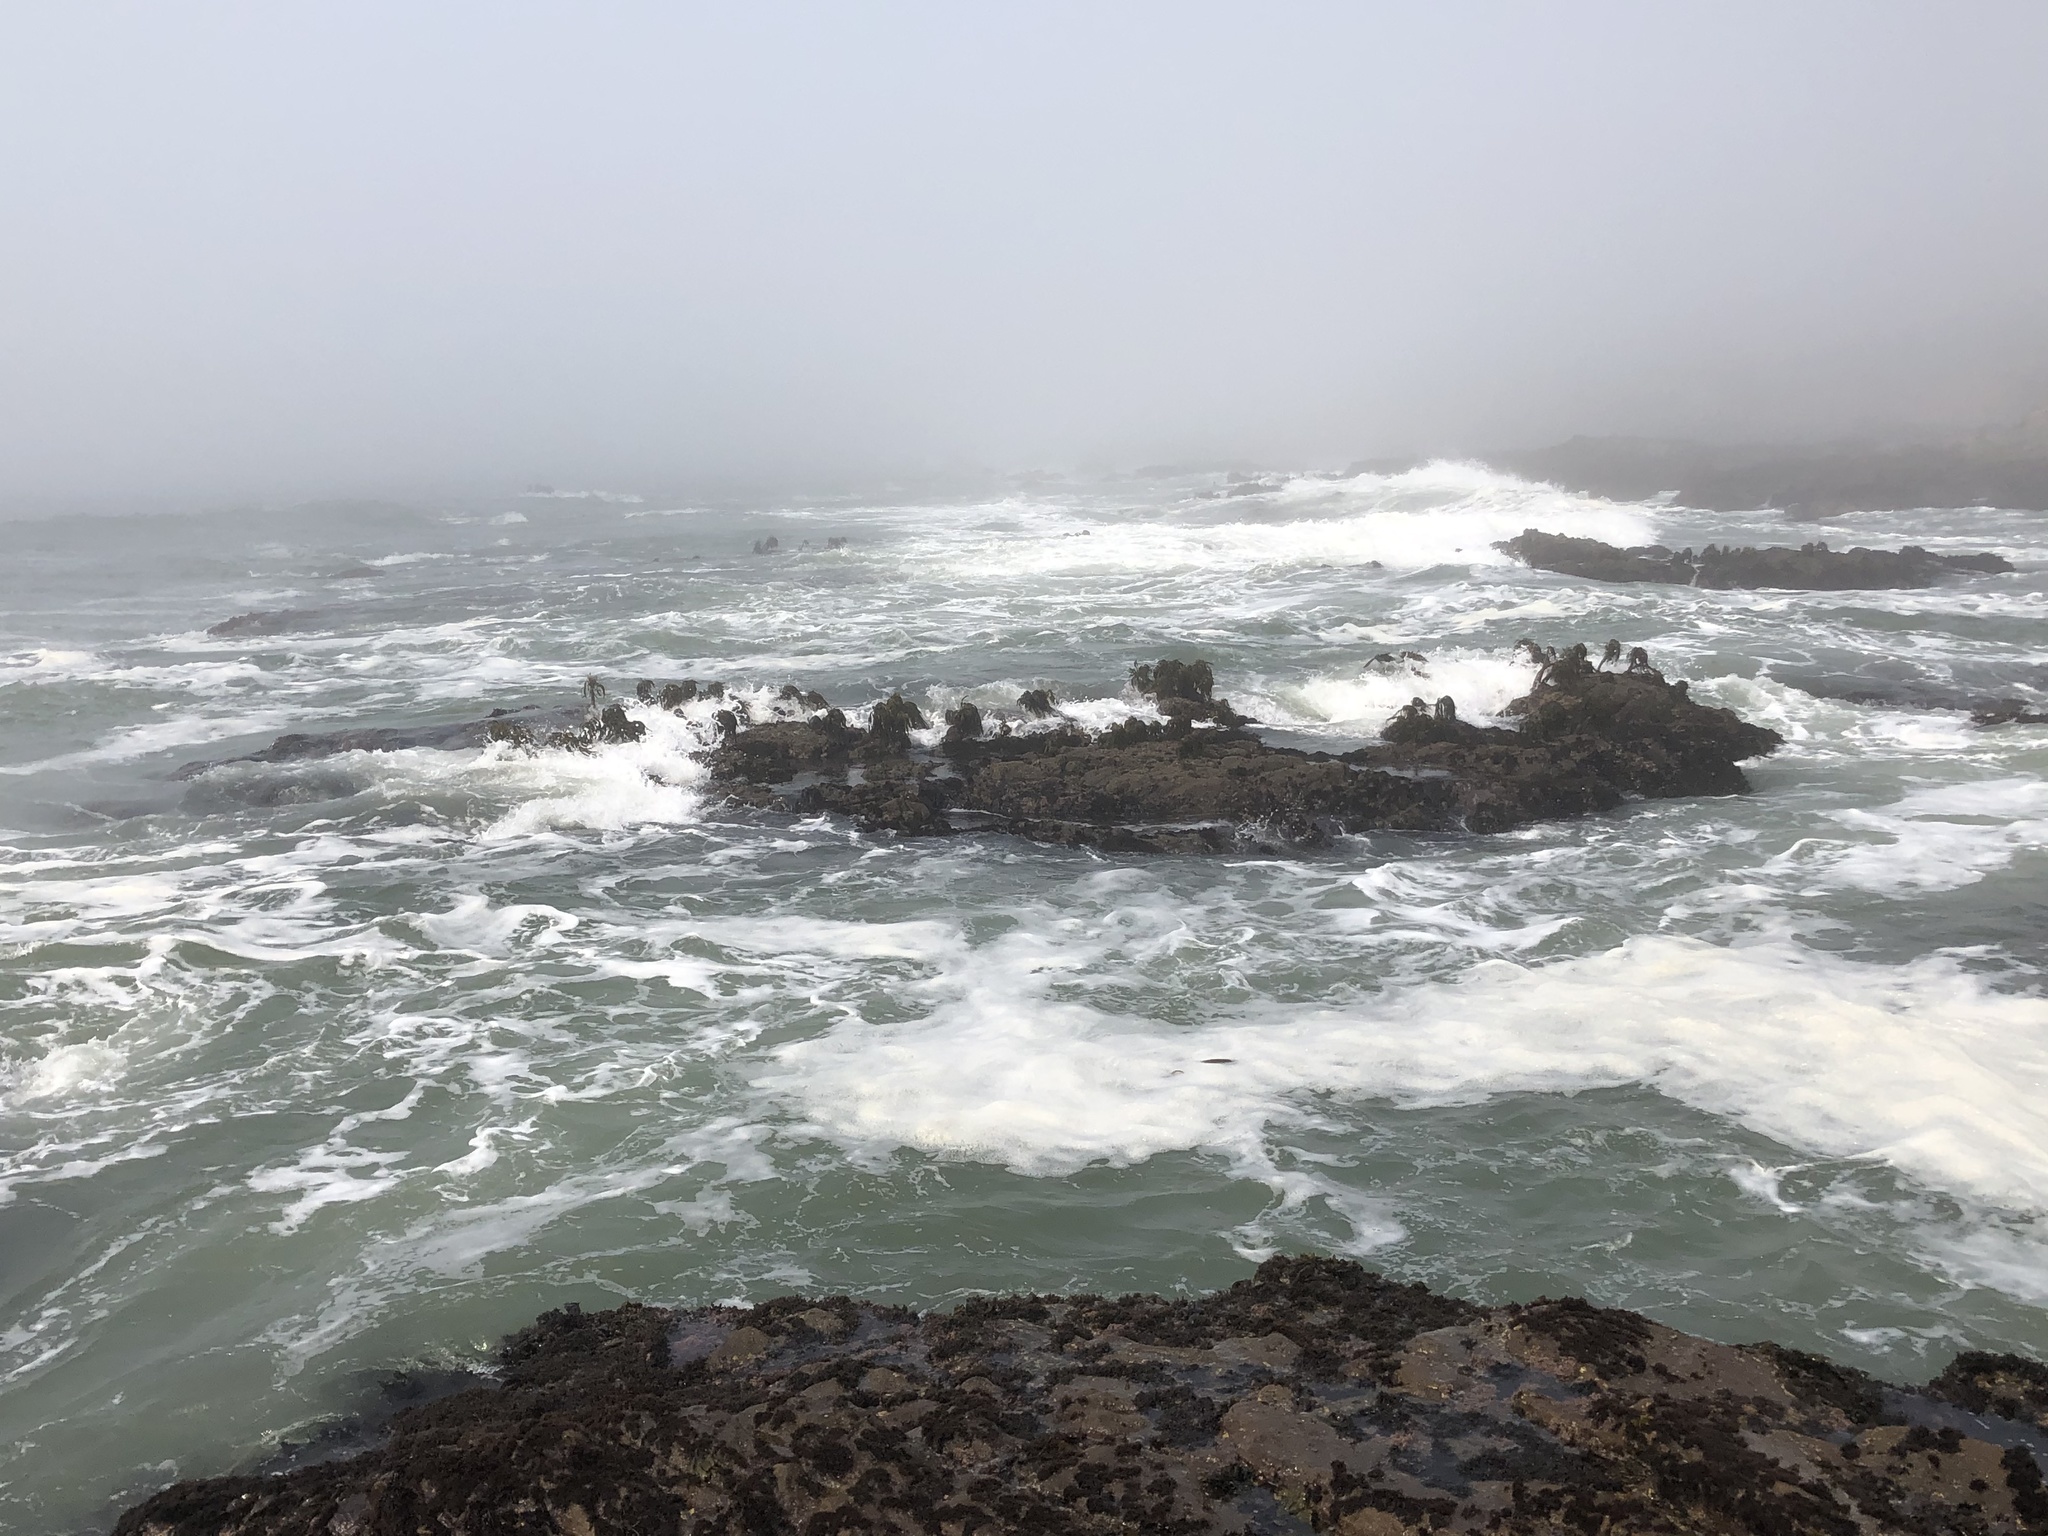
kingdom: Chromista
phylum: Ochrophyta
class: Phaeophyceae
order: Laminariales
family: Laminariaceae
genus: Postelsia
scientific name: Postelsia palmiformis
